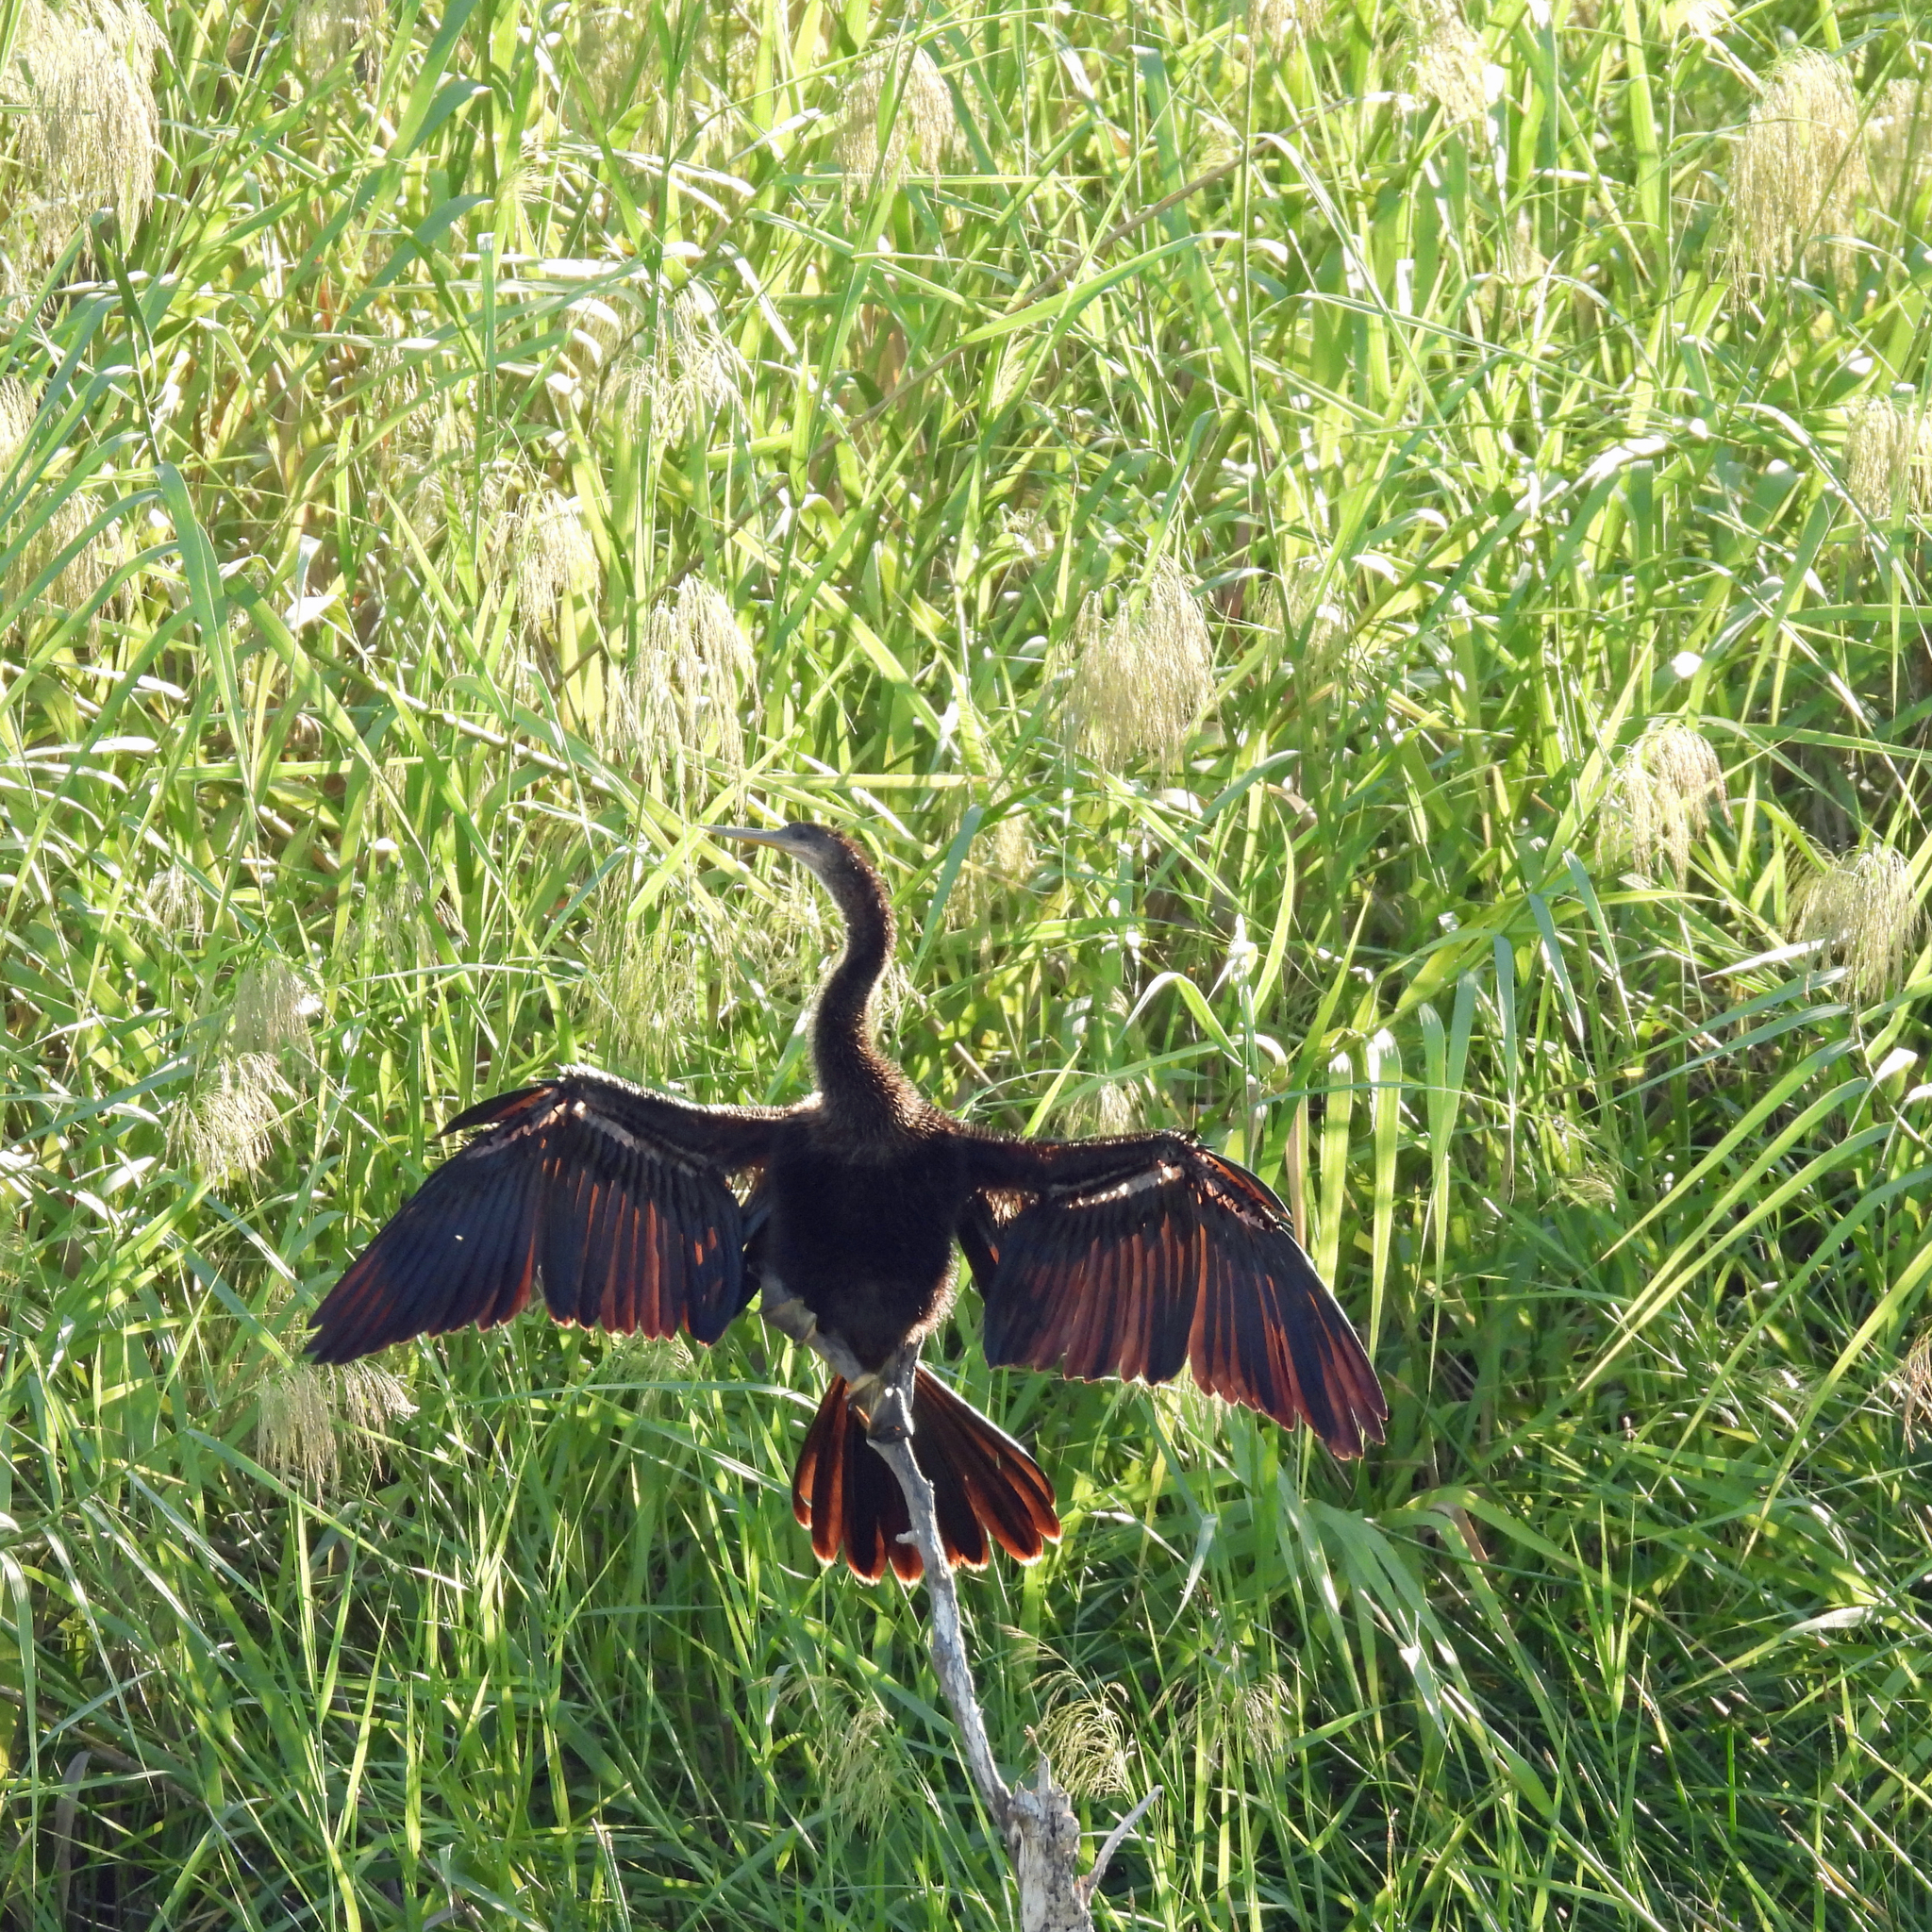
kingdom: Animalia
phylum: Chordata
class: Aves
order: Suliformes
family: Anhingidae
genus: Anhinga
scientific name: Anhinga anhinga
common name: Anhinga
